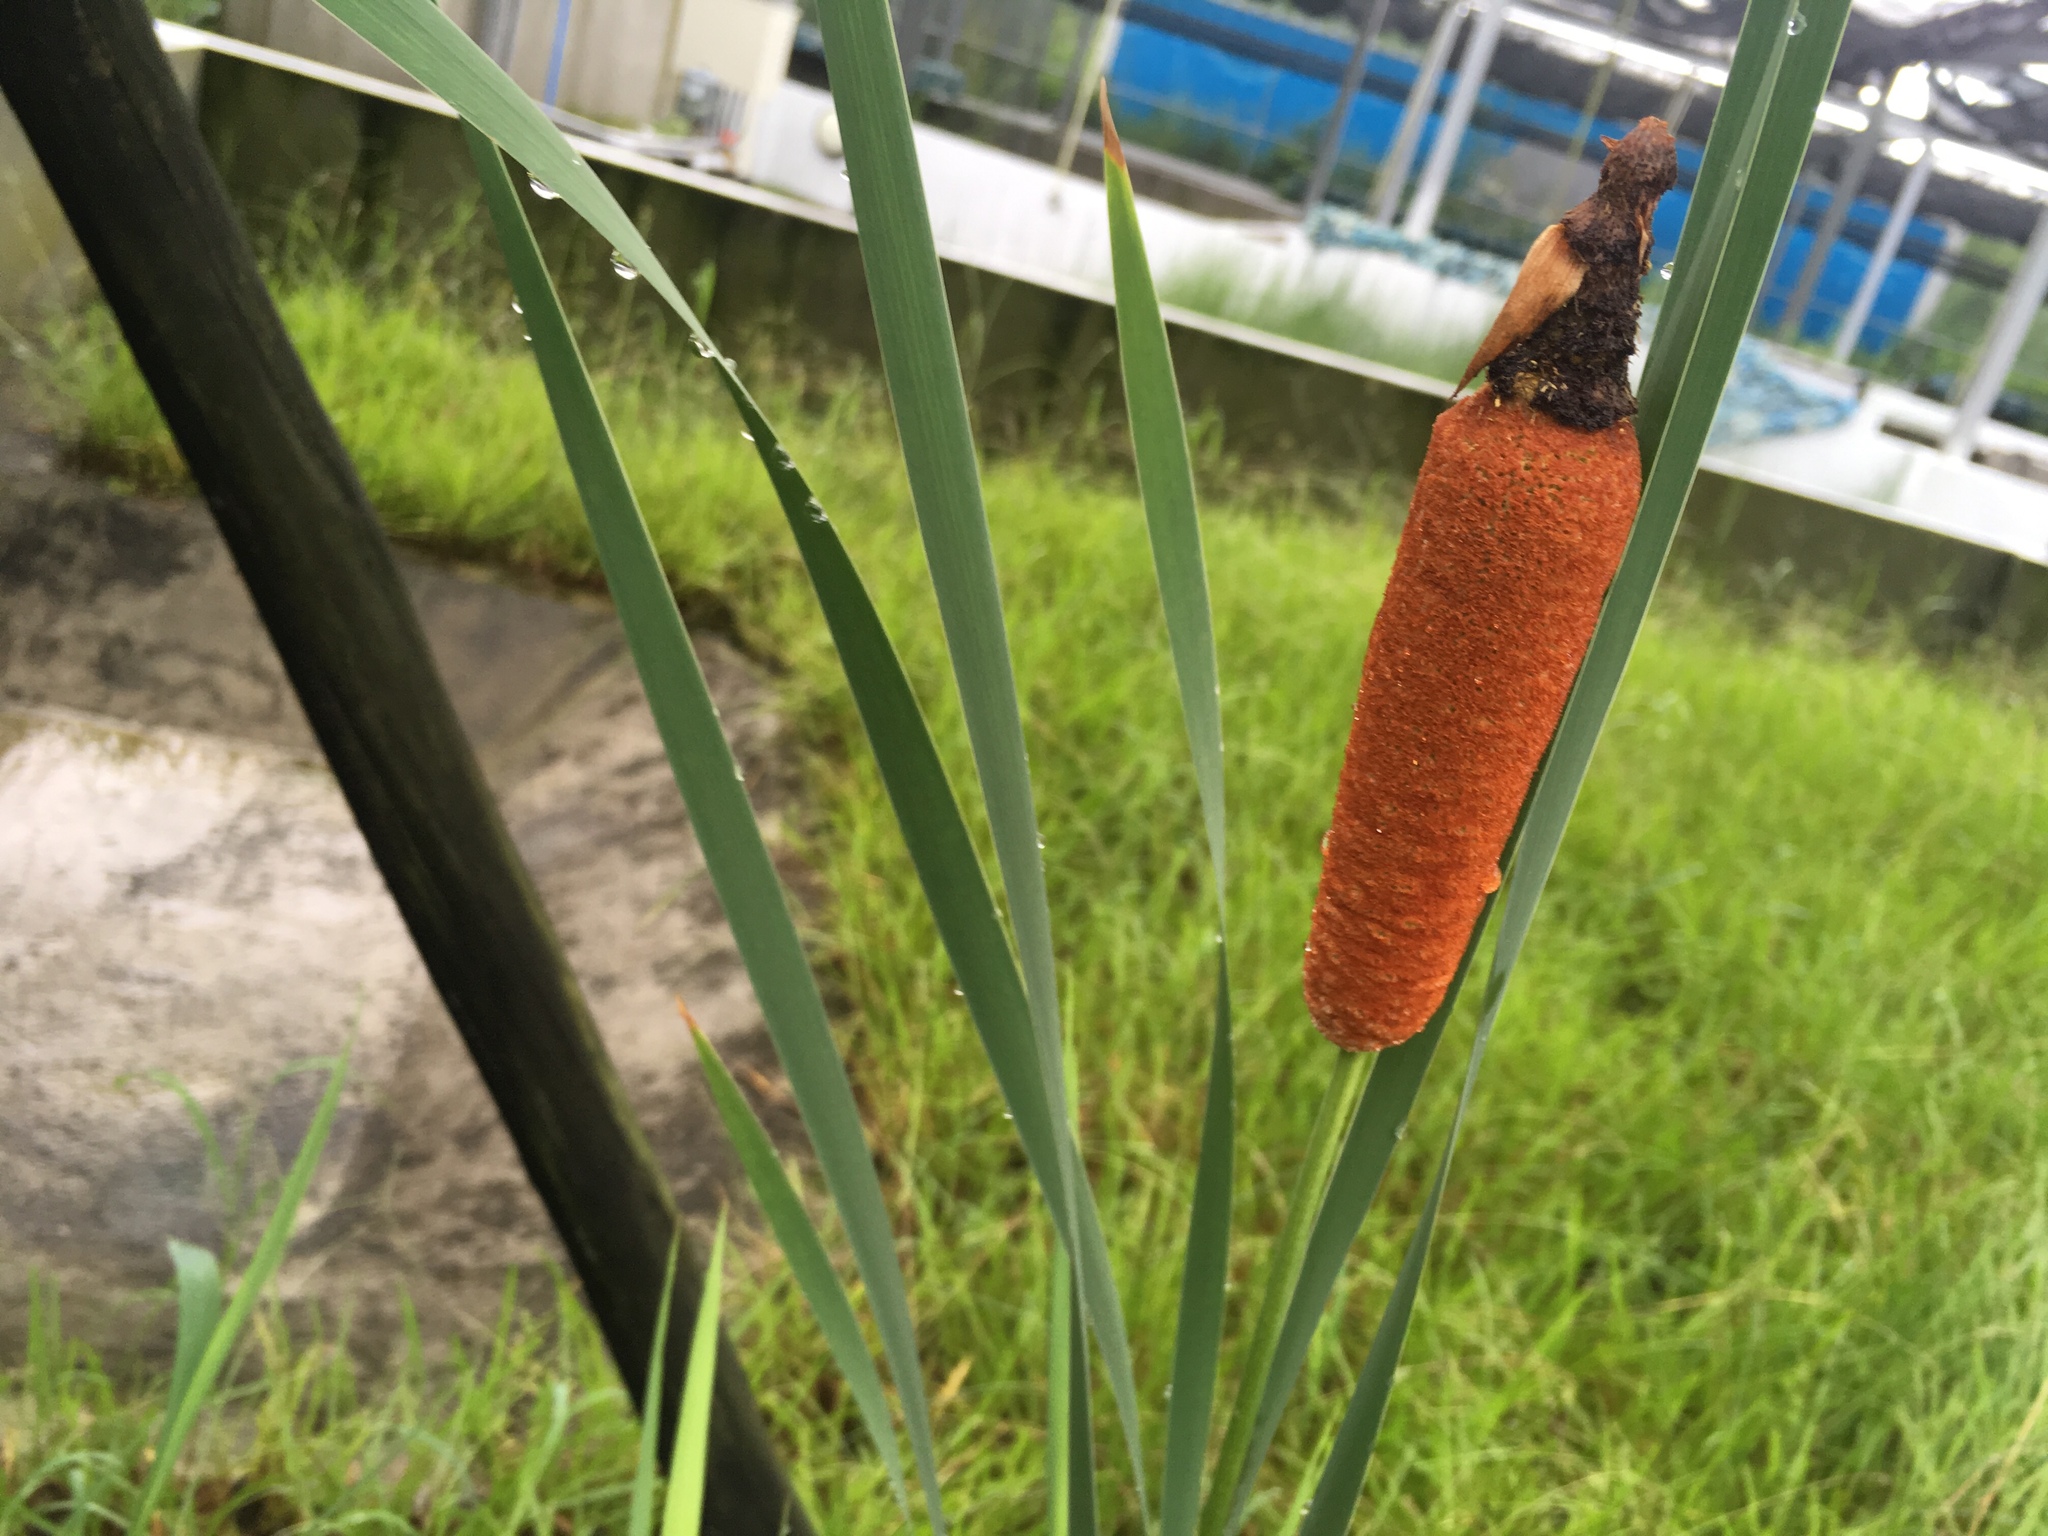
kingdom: Plantae
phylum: Tracheophyta
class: Liliopsida
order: Poales
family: Typhaceae
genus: Typha
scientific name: Typha orientalis
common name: Bullrush
